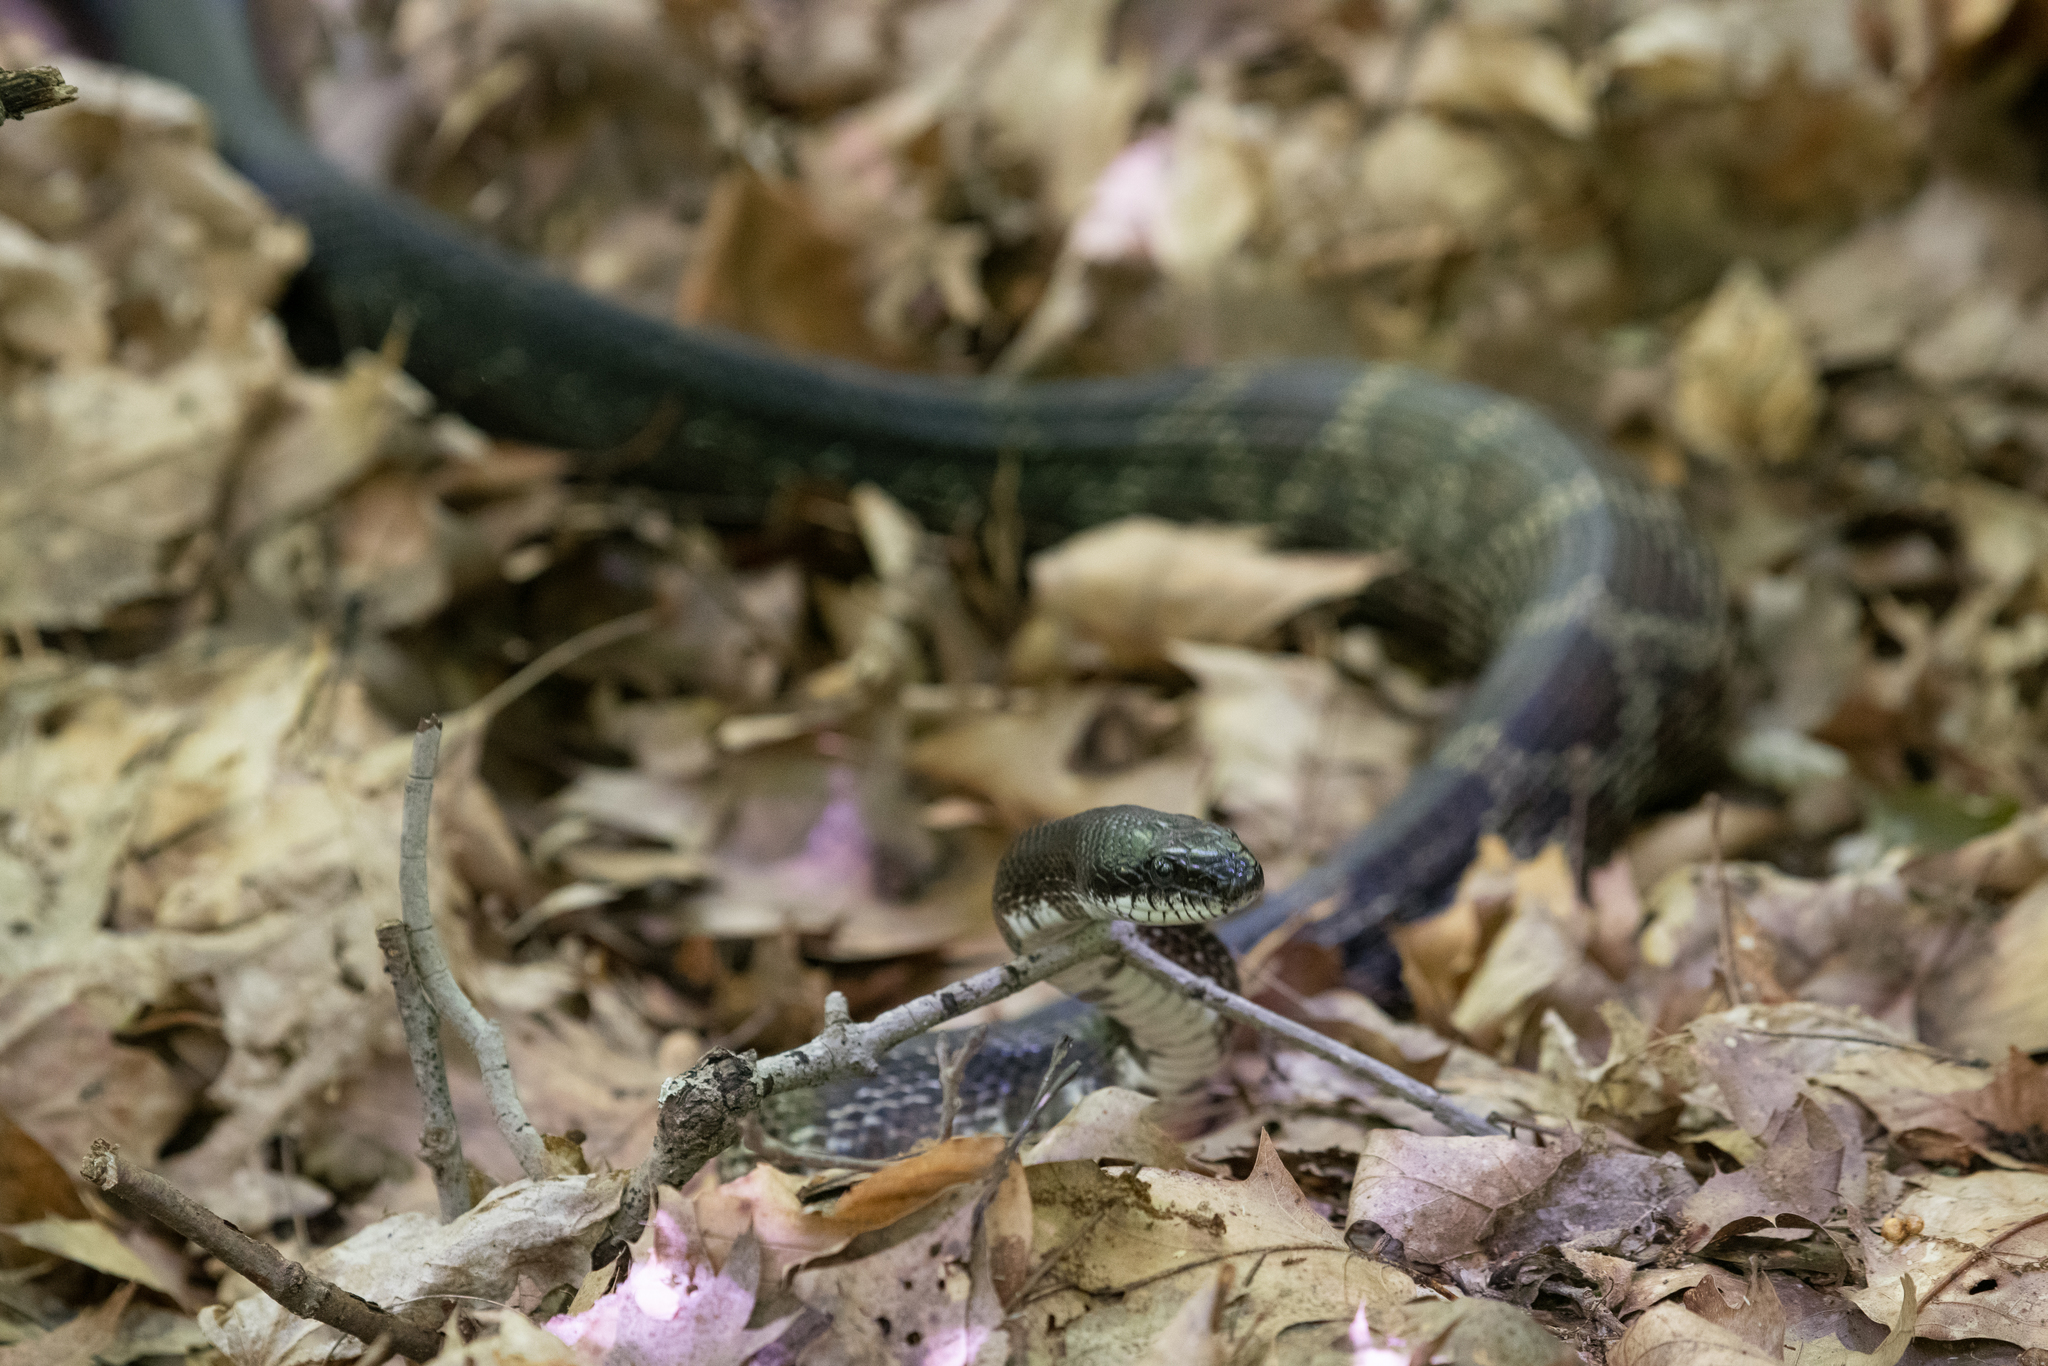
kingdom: Animalia
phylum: Chordata
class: Squamata
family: Colubridae
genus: Pantherophis
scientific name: Pantherophis spiloides
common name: Gray rat snake
